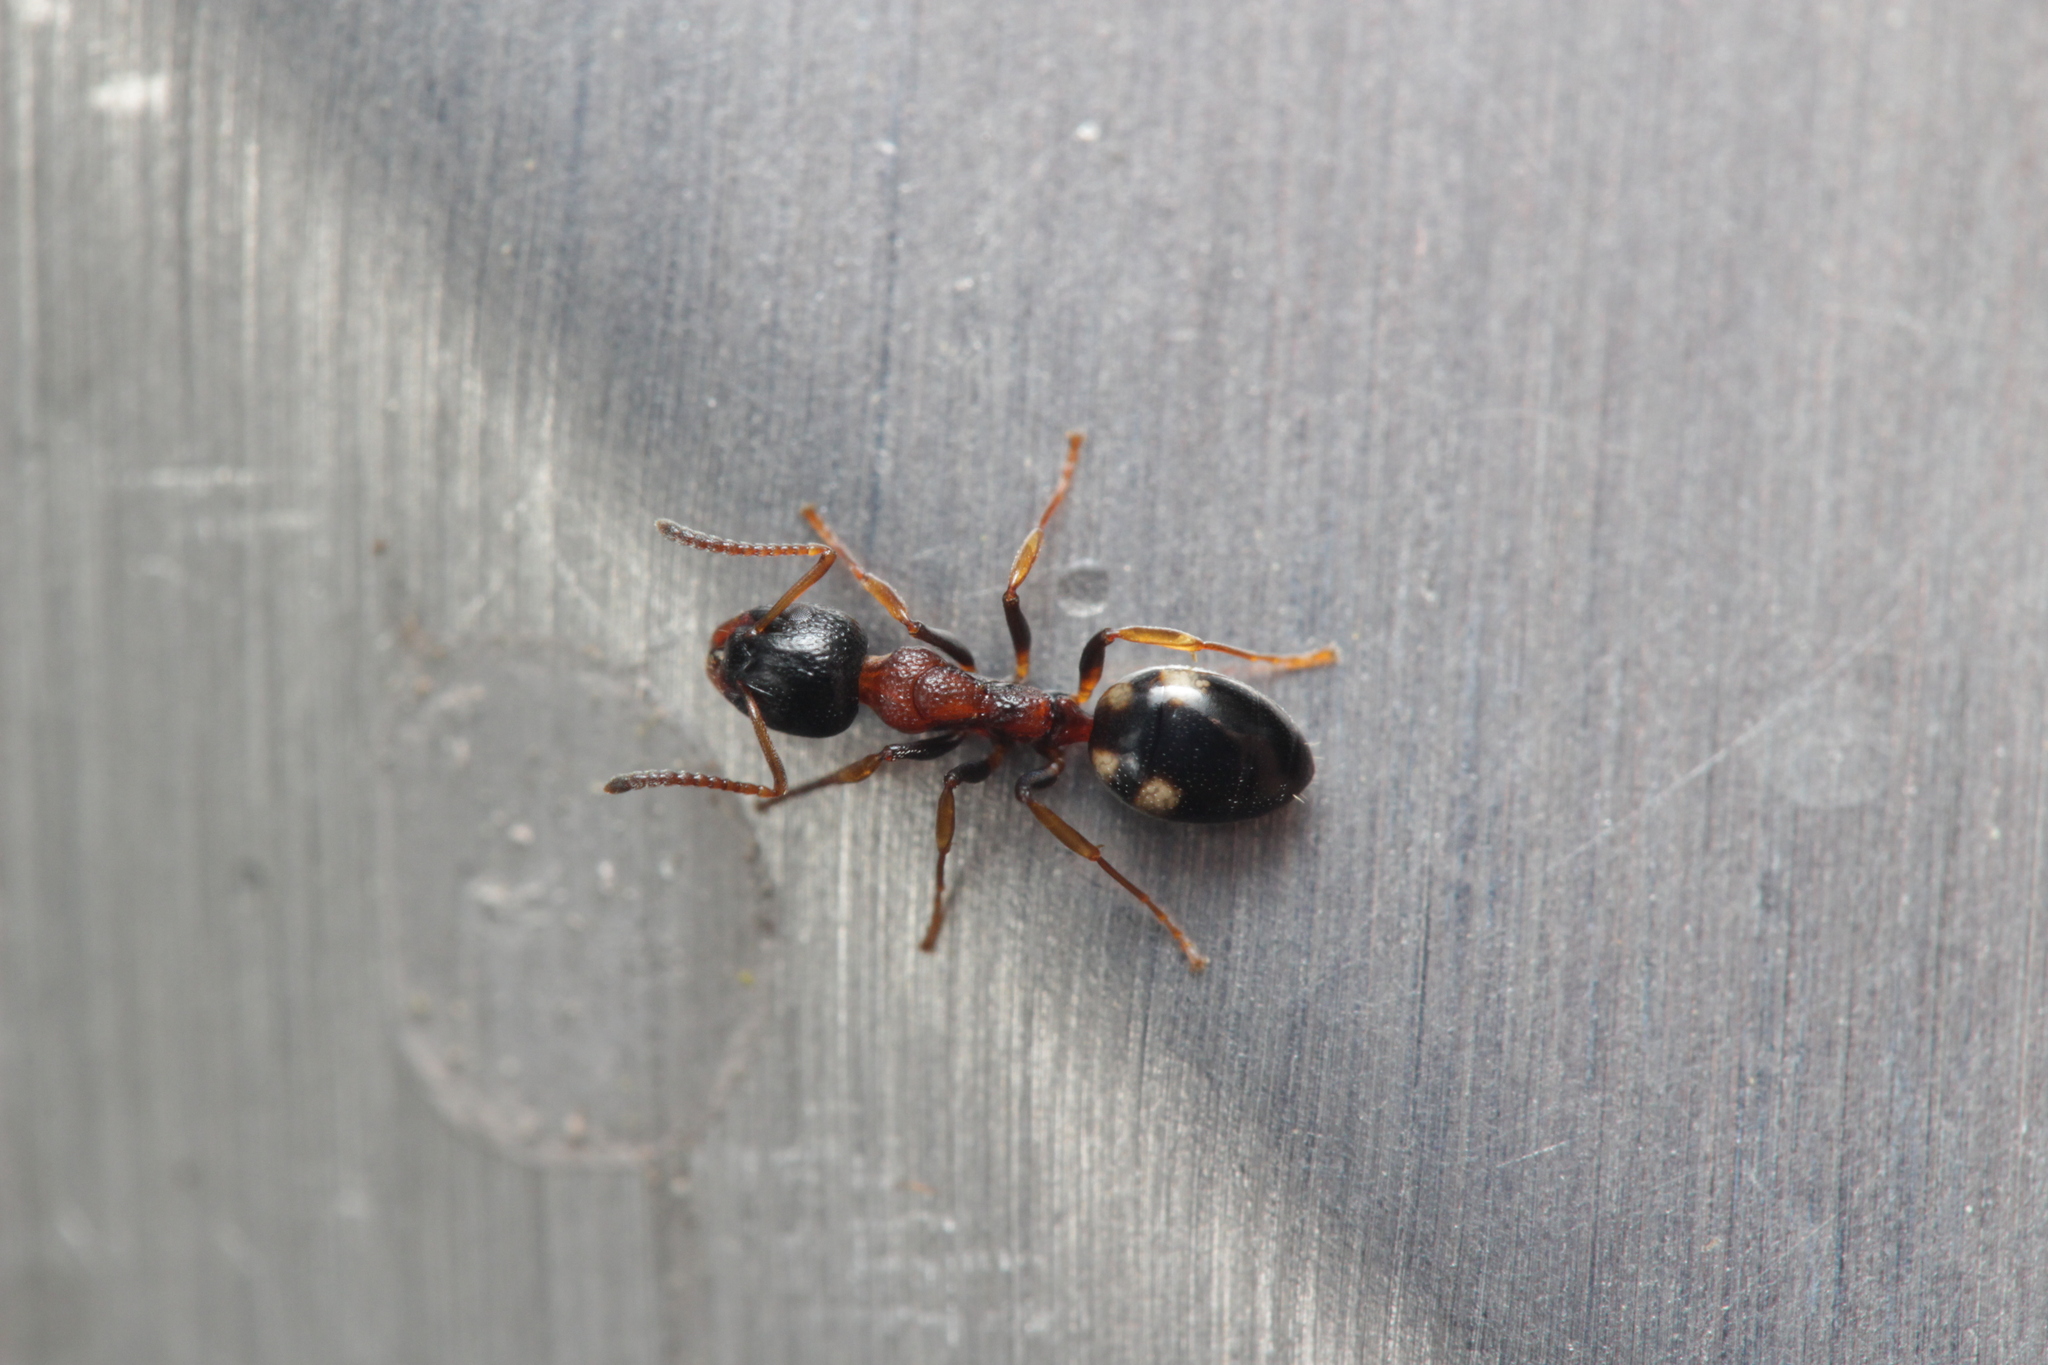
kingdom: Animalia
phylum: Arthropoda
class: Insecta
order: Hymenoptera
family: Formicidae
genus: Dolichoderus
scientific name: Dolichoderus quadripunctatus
